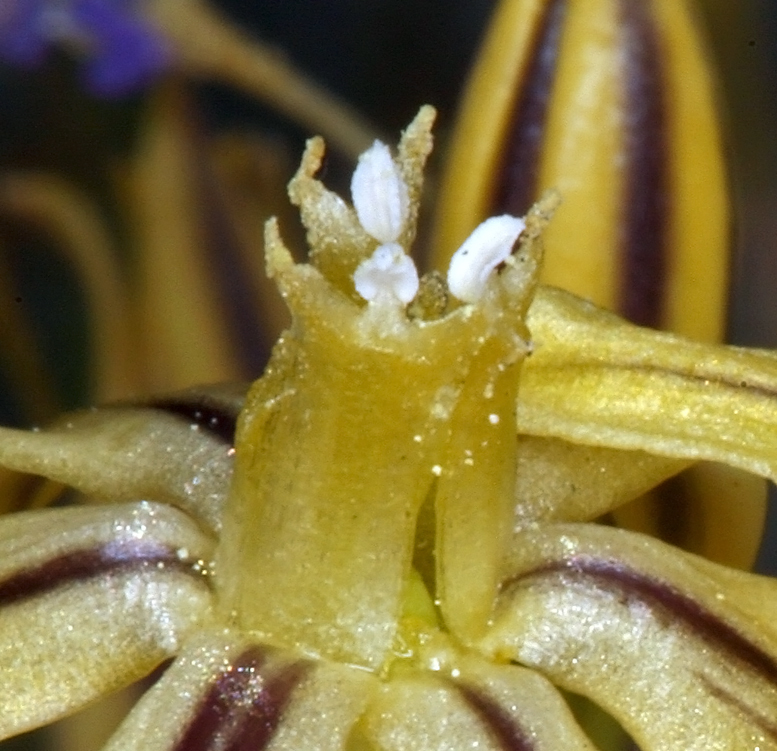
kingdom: Plantae
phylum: Tracheophyta
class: Liliopsida
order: Asparagales
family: Asparagaceae
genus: Triteleia
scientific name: Triteleia ixioides
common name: Yellow-brodiaea
